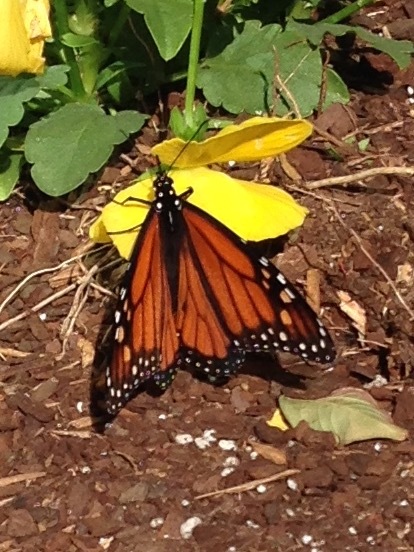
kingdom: Animalia
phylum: Arthropoda
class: Insecta
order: Lepidoptera
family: Nymphalidae
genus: Danaus
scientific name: Danaus plexippus
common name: Monarch
